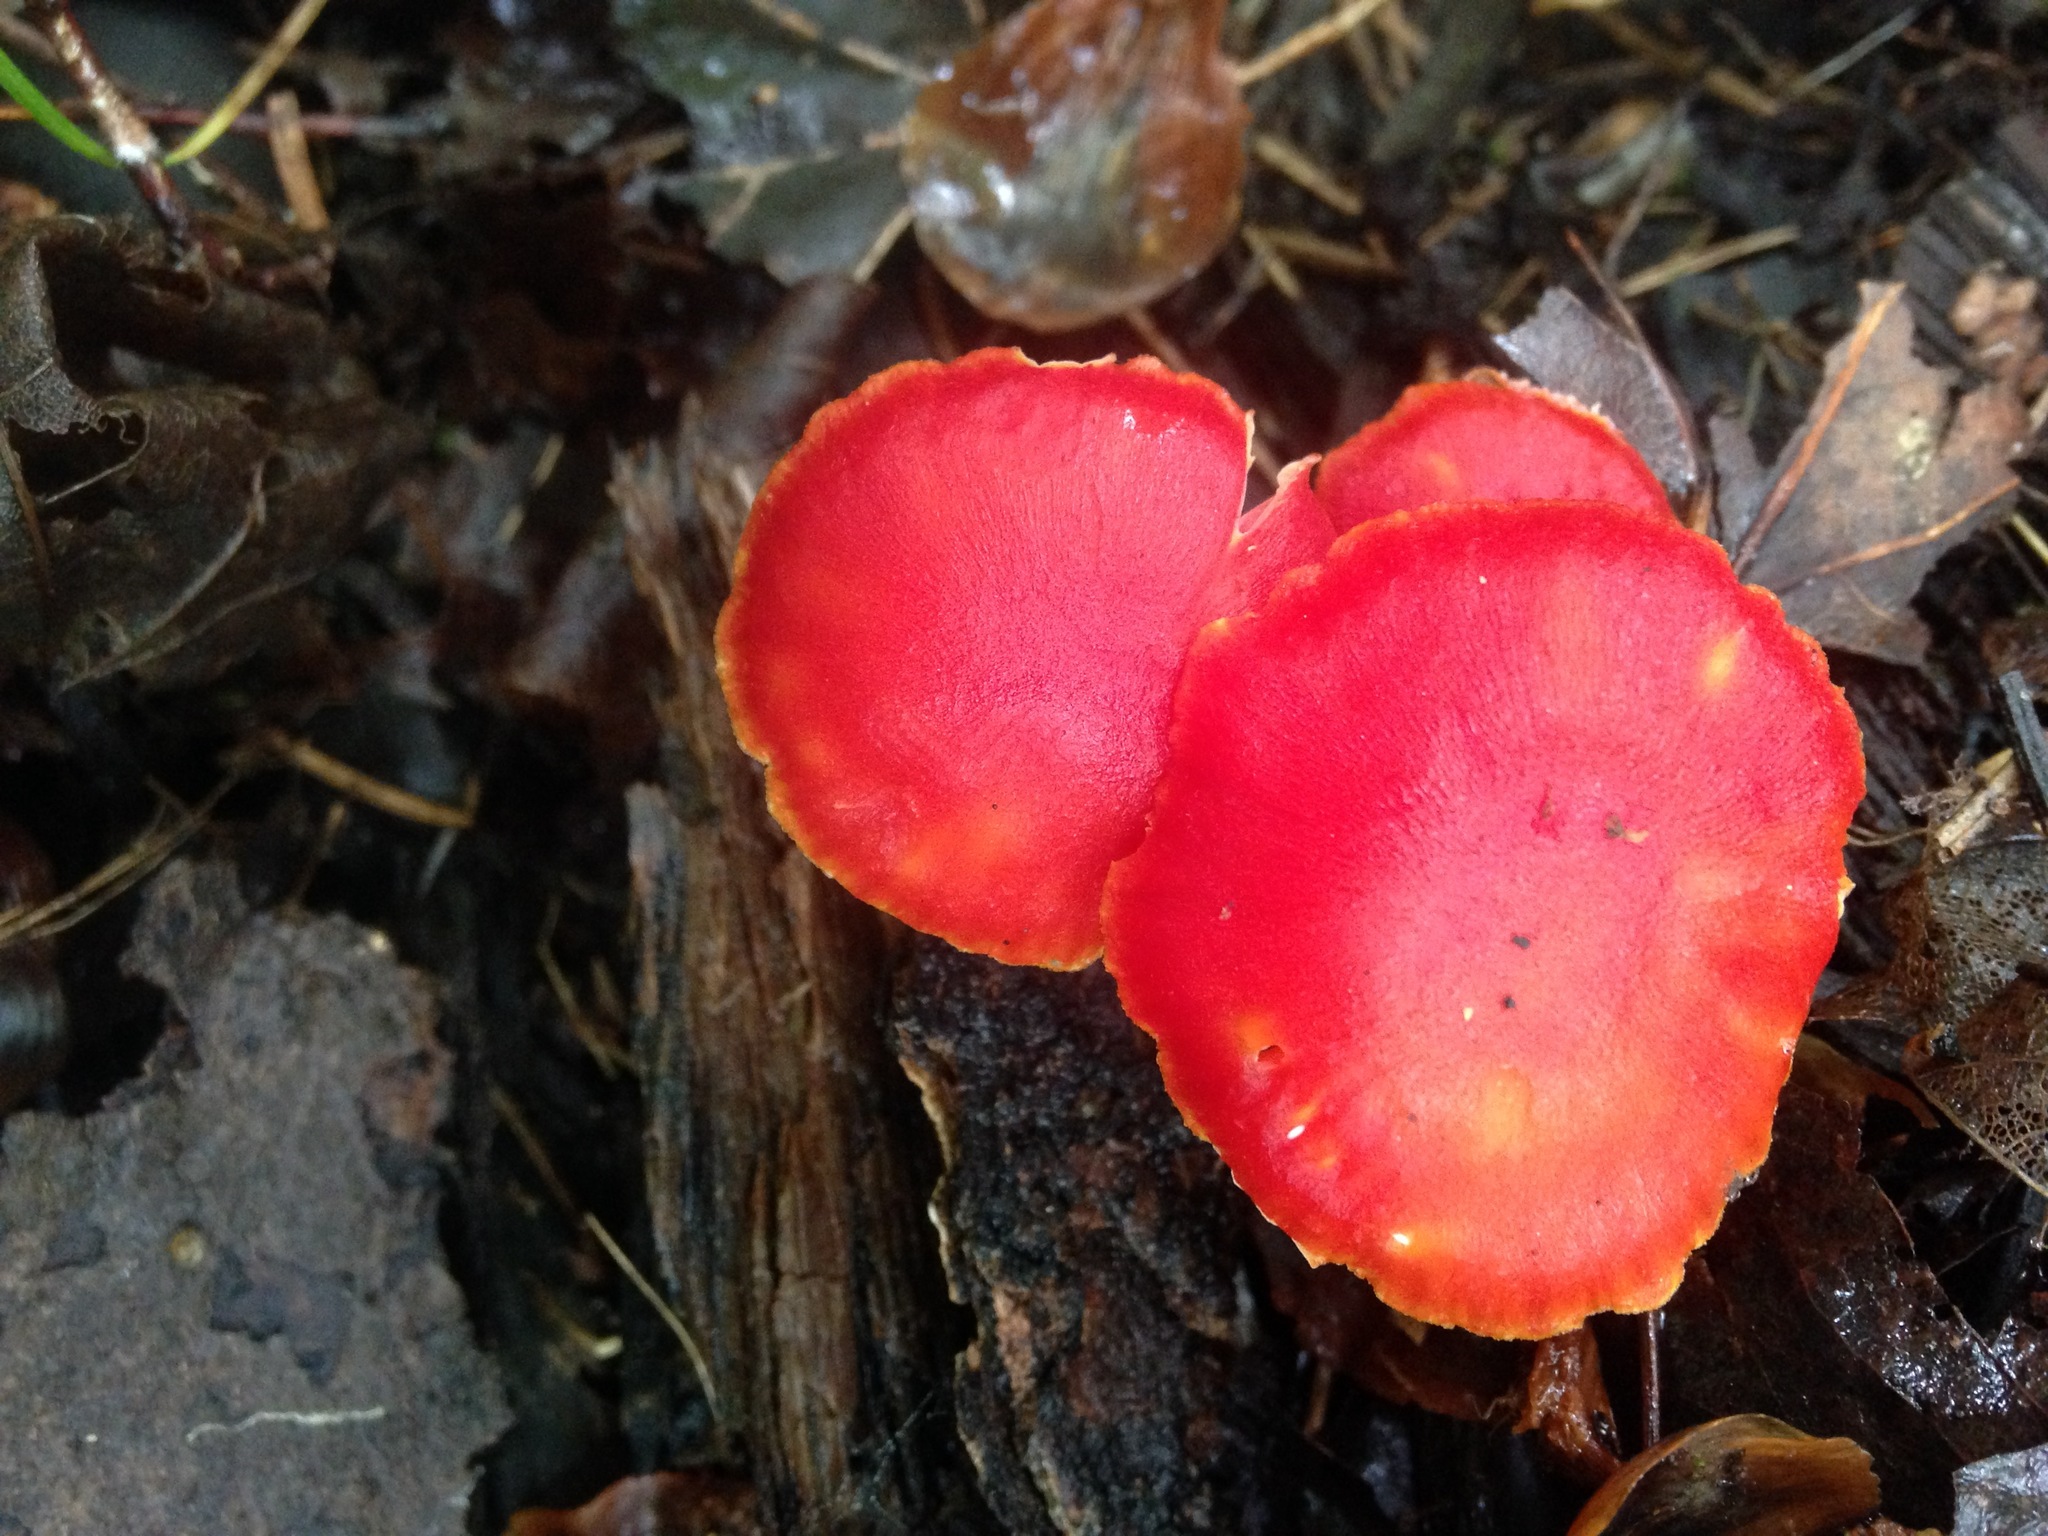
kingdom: Fungi
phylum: Basidiomycota
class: Agaricomycetes
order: Agaricales
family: Hygrophoraceae
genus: Hygrocybe
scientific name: Hygrocybe punicea
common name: Crimson waxcap
